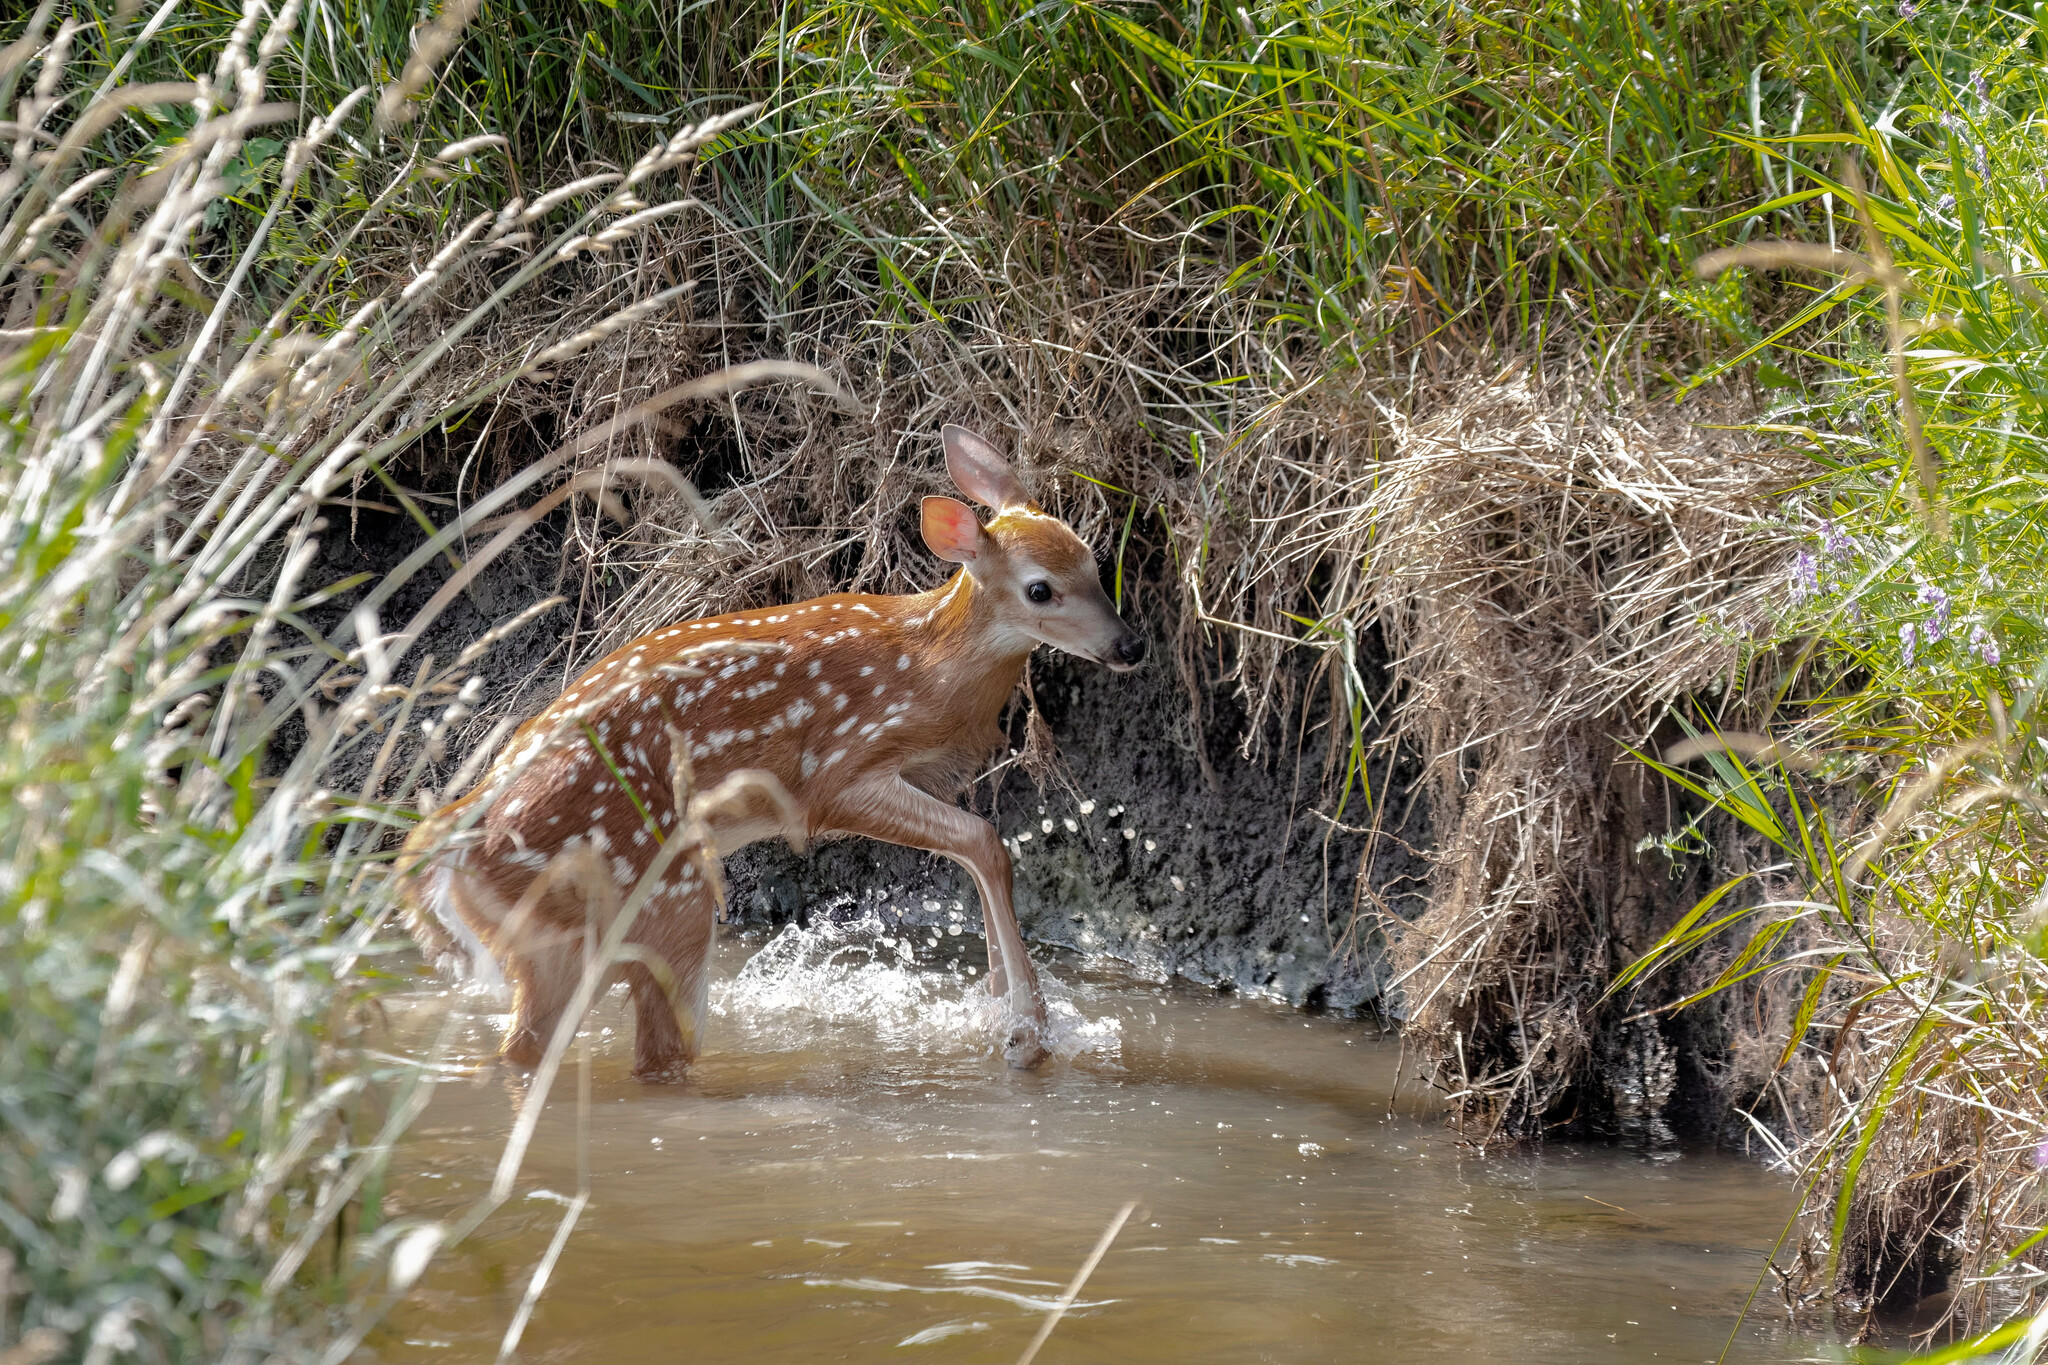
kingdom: Animalia
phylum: Chordata
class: Mammalia
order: Artiodactyla
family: Cervidae
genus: Odocoileus
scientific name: Odocoileus virginianus
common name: White-tailed deer
